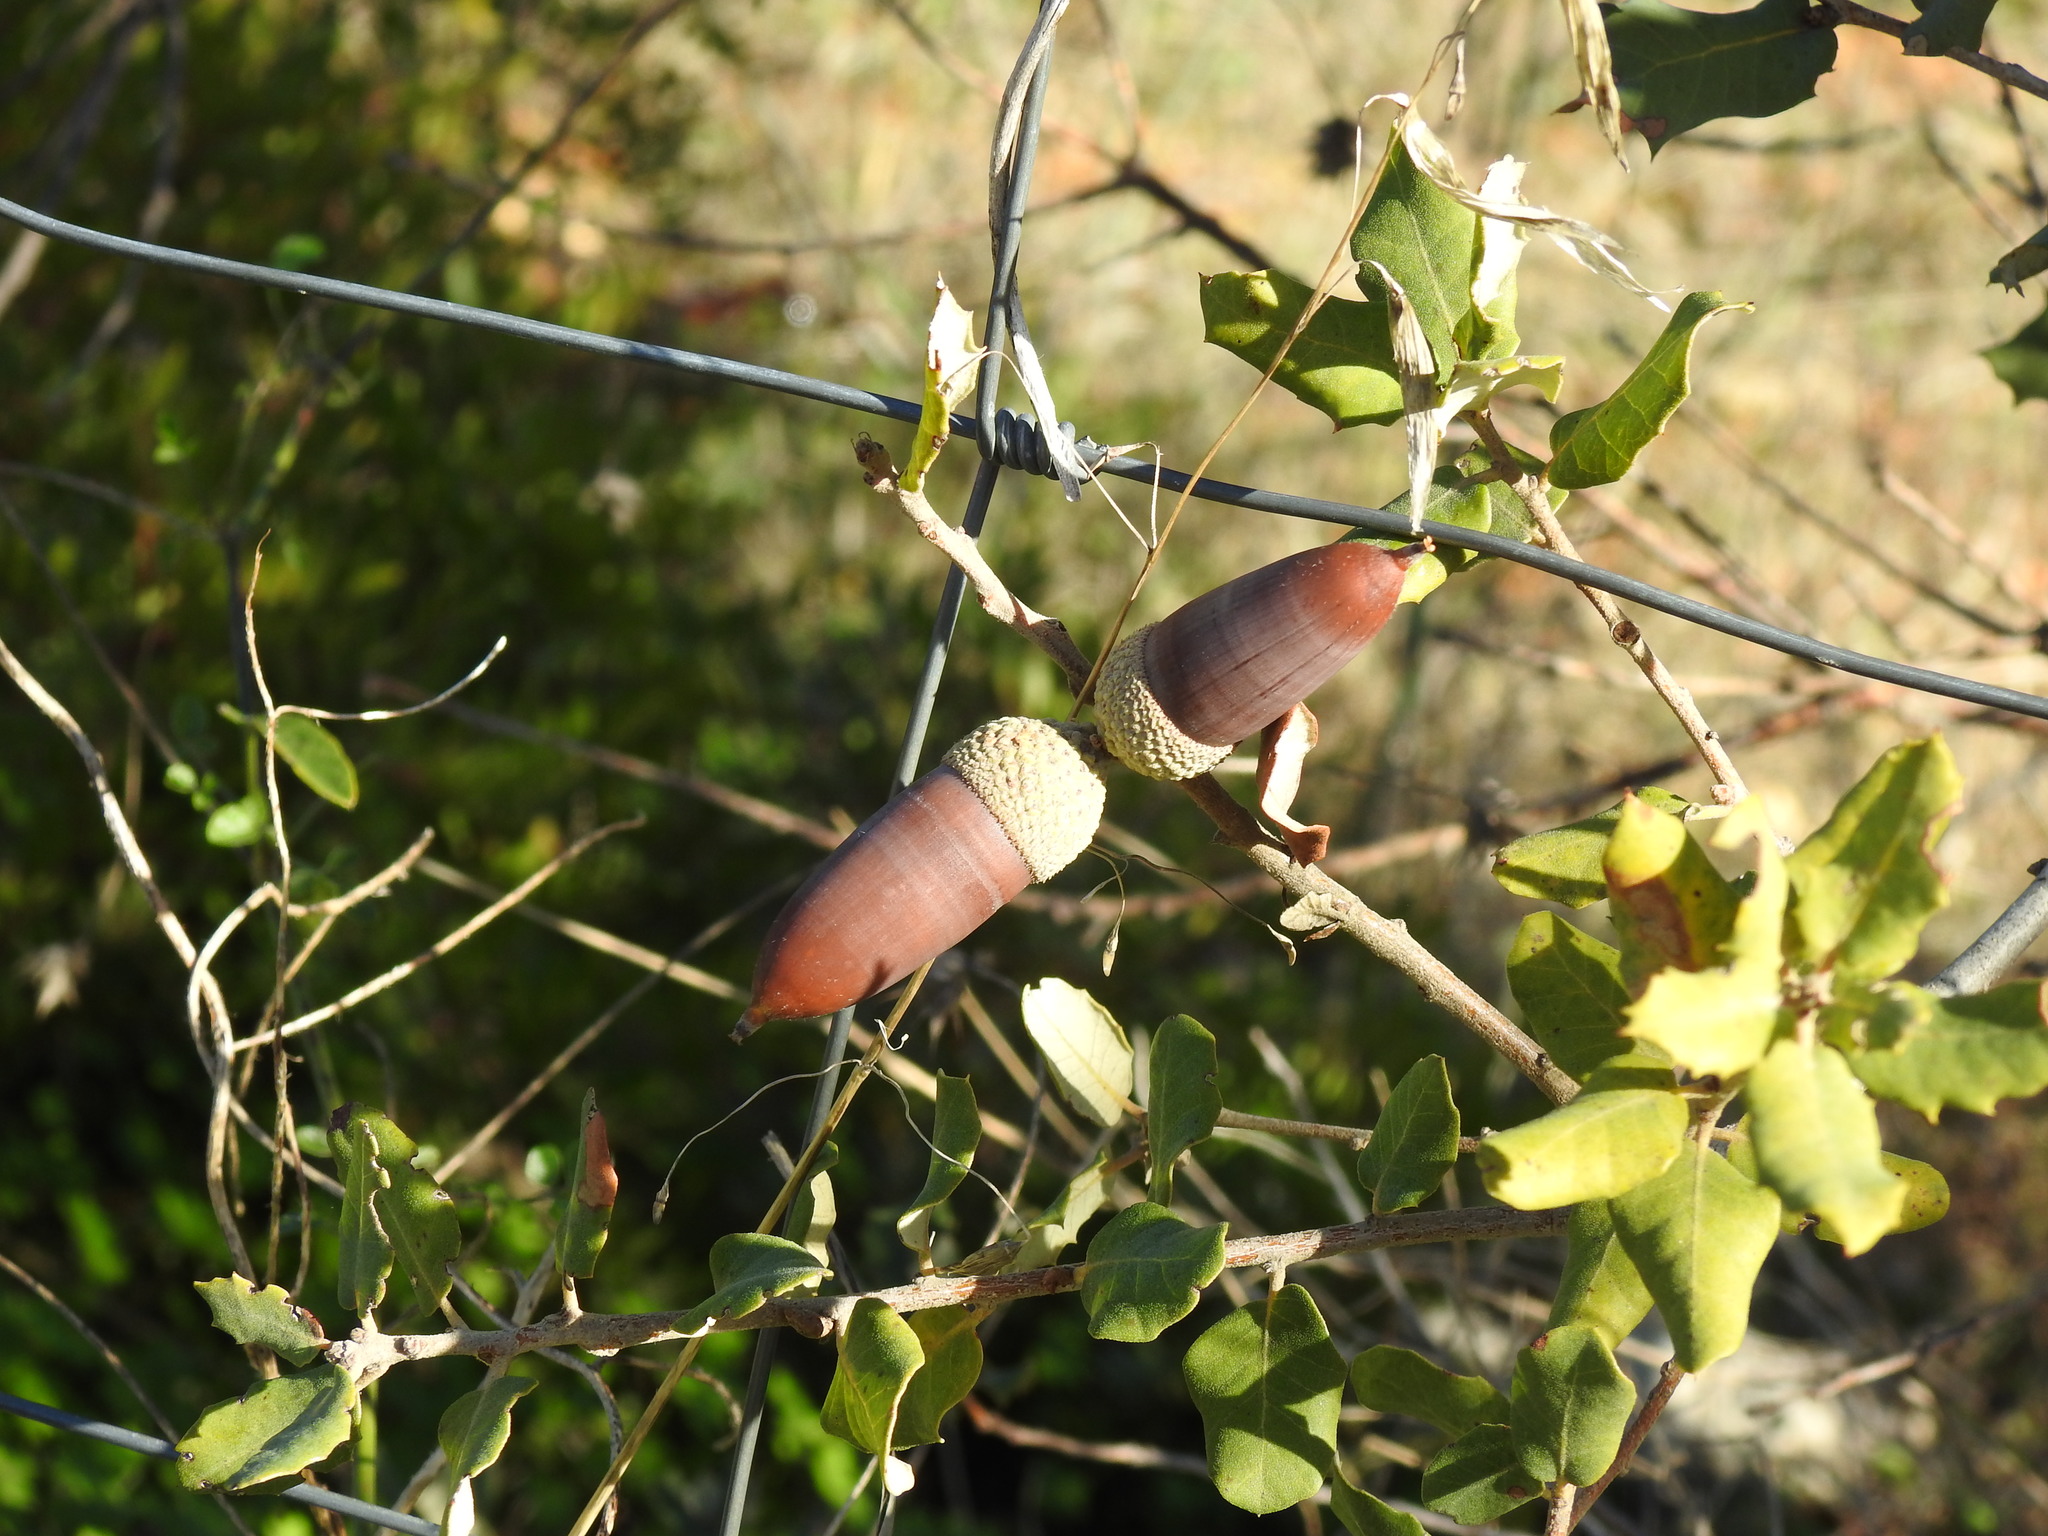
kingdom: Plantae
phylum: Tracheophyta
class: Magnoliopsida
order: Fagales
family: Fagaceae
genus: Quercus
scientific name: Quercus rotundifolia
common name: Holm oak
